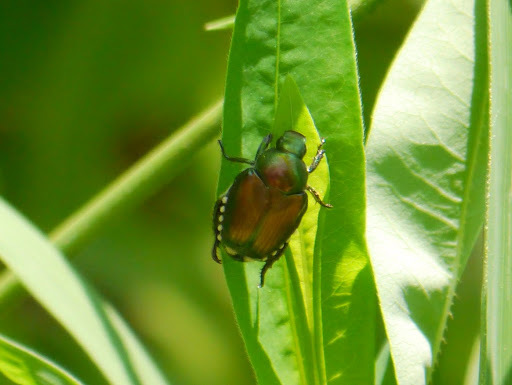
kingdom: Animalia
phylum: Arthropoda
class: Insecta
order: Coleoptera
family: Scarabaeidae
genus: Popillia
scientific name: Popillia japonica
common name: Japanese beetle
